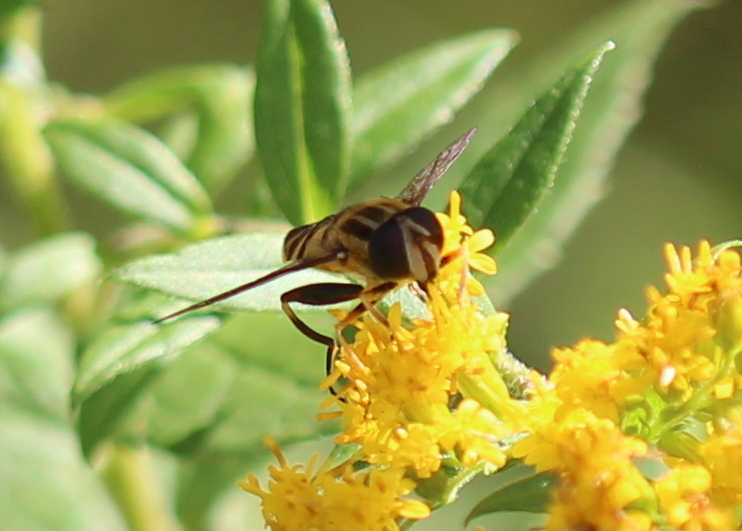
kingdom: Animalia
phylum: Arthropoda
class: Insecta
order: Diptera
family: Syrphidae
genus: Helophilus
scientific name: Helophilus fasciatus
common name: Narrow-headed marsh fly
